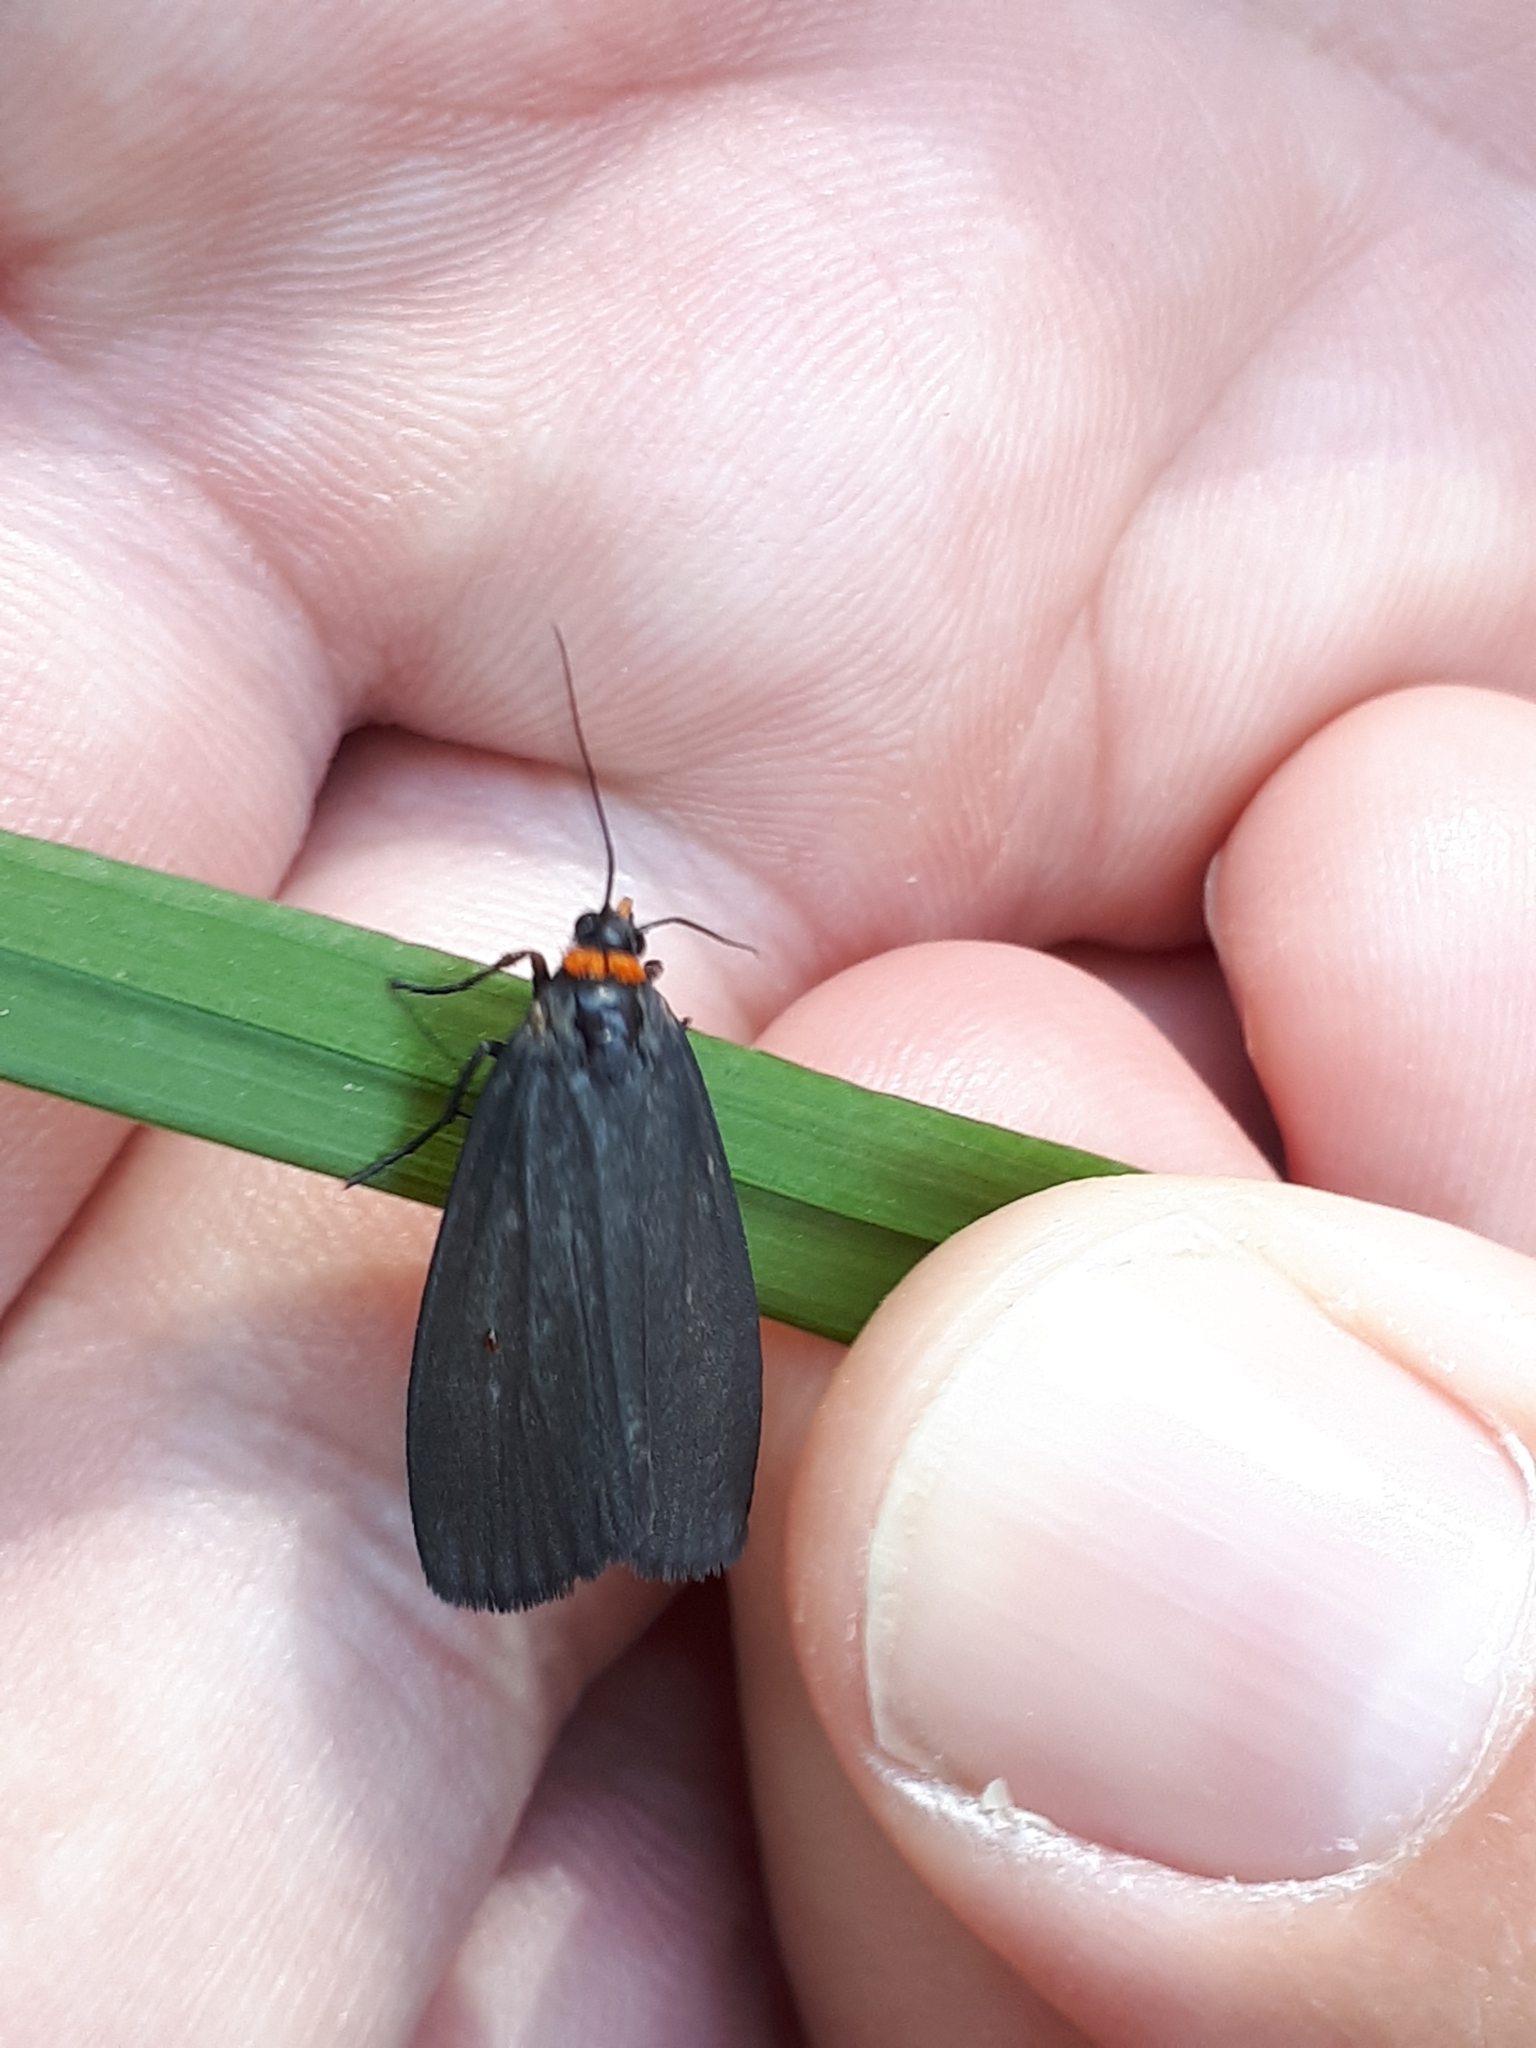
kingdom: Animalia
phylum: Arthropoda
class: Insecta
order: Lepidoptera
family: Erebidae
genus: Atolmis
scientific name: Atolmis rubricollis
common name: Red-necked footman
